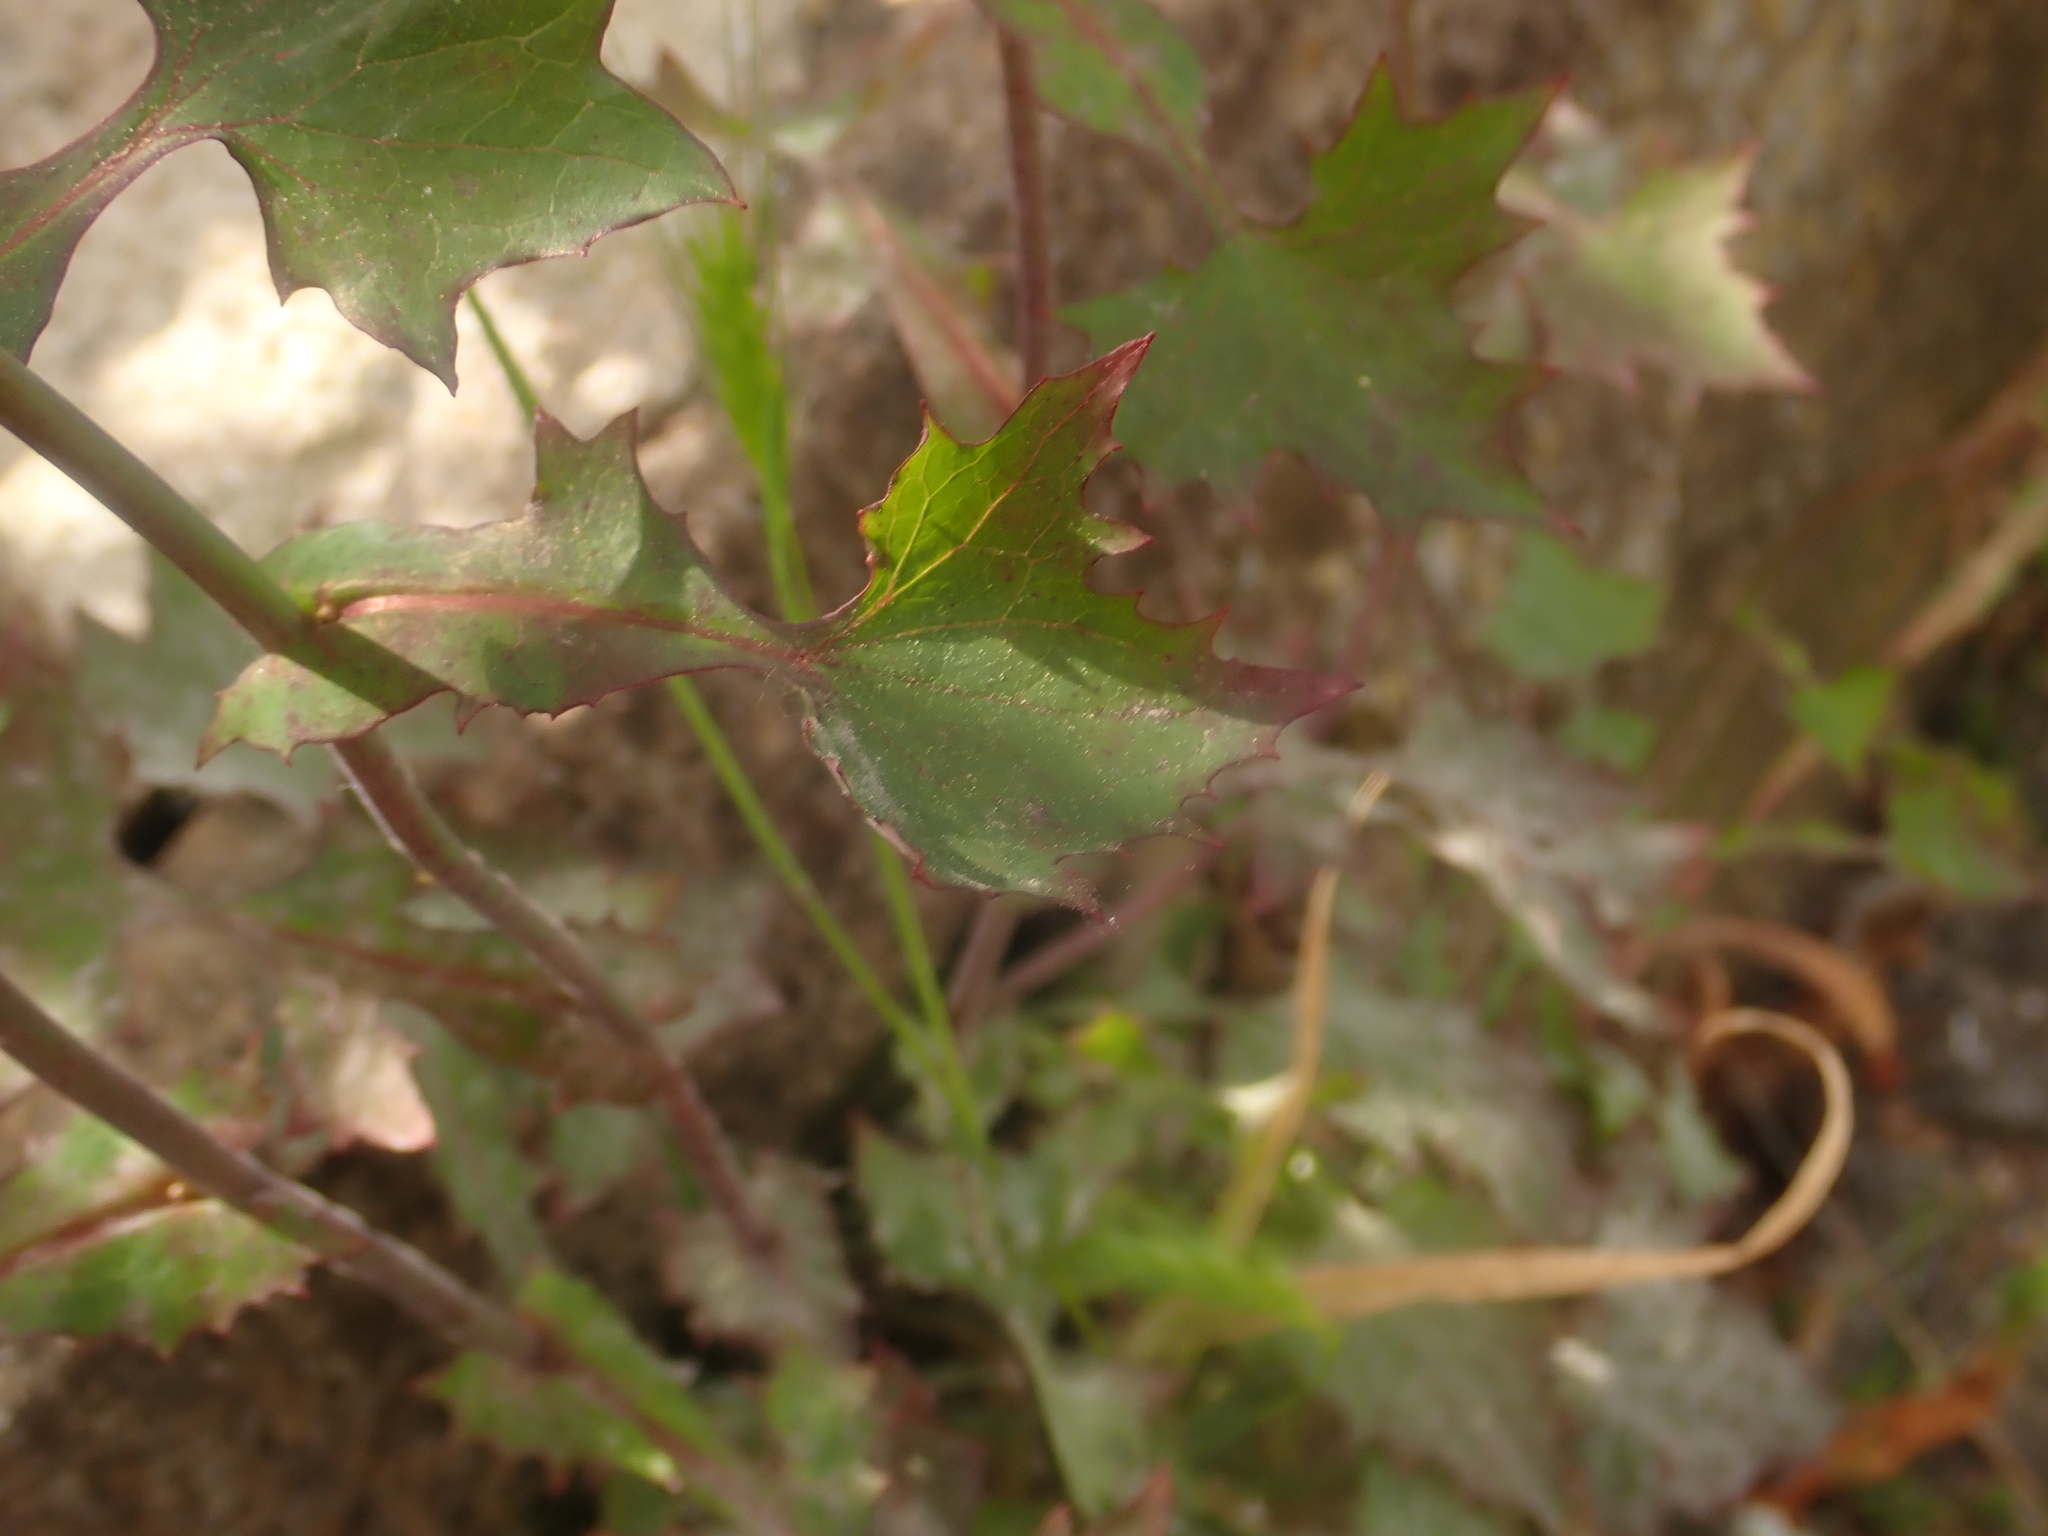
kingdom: Plantae
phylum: Tracheophyta
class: Magnoliopsida
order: Asterales
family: Asteraceae
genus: Mycelis
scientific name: Mycelis muralis
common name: Wall lettuce
